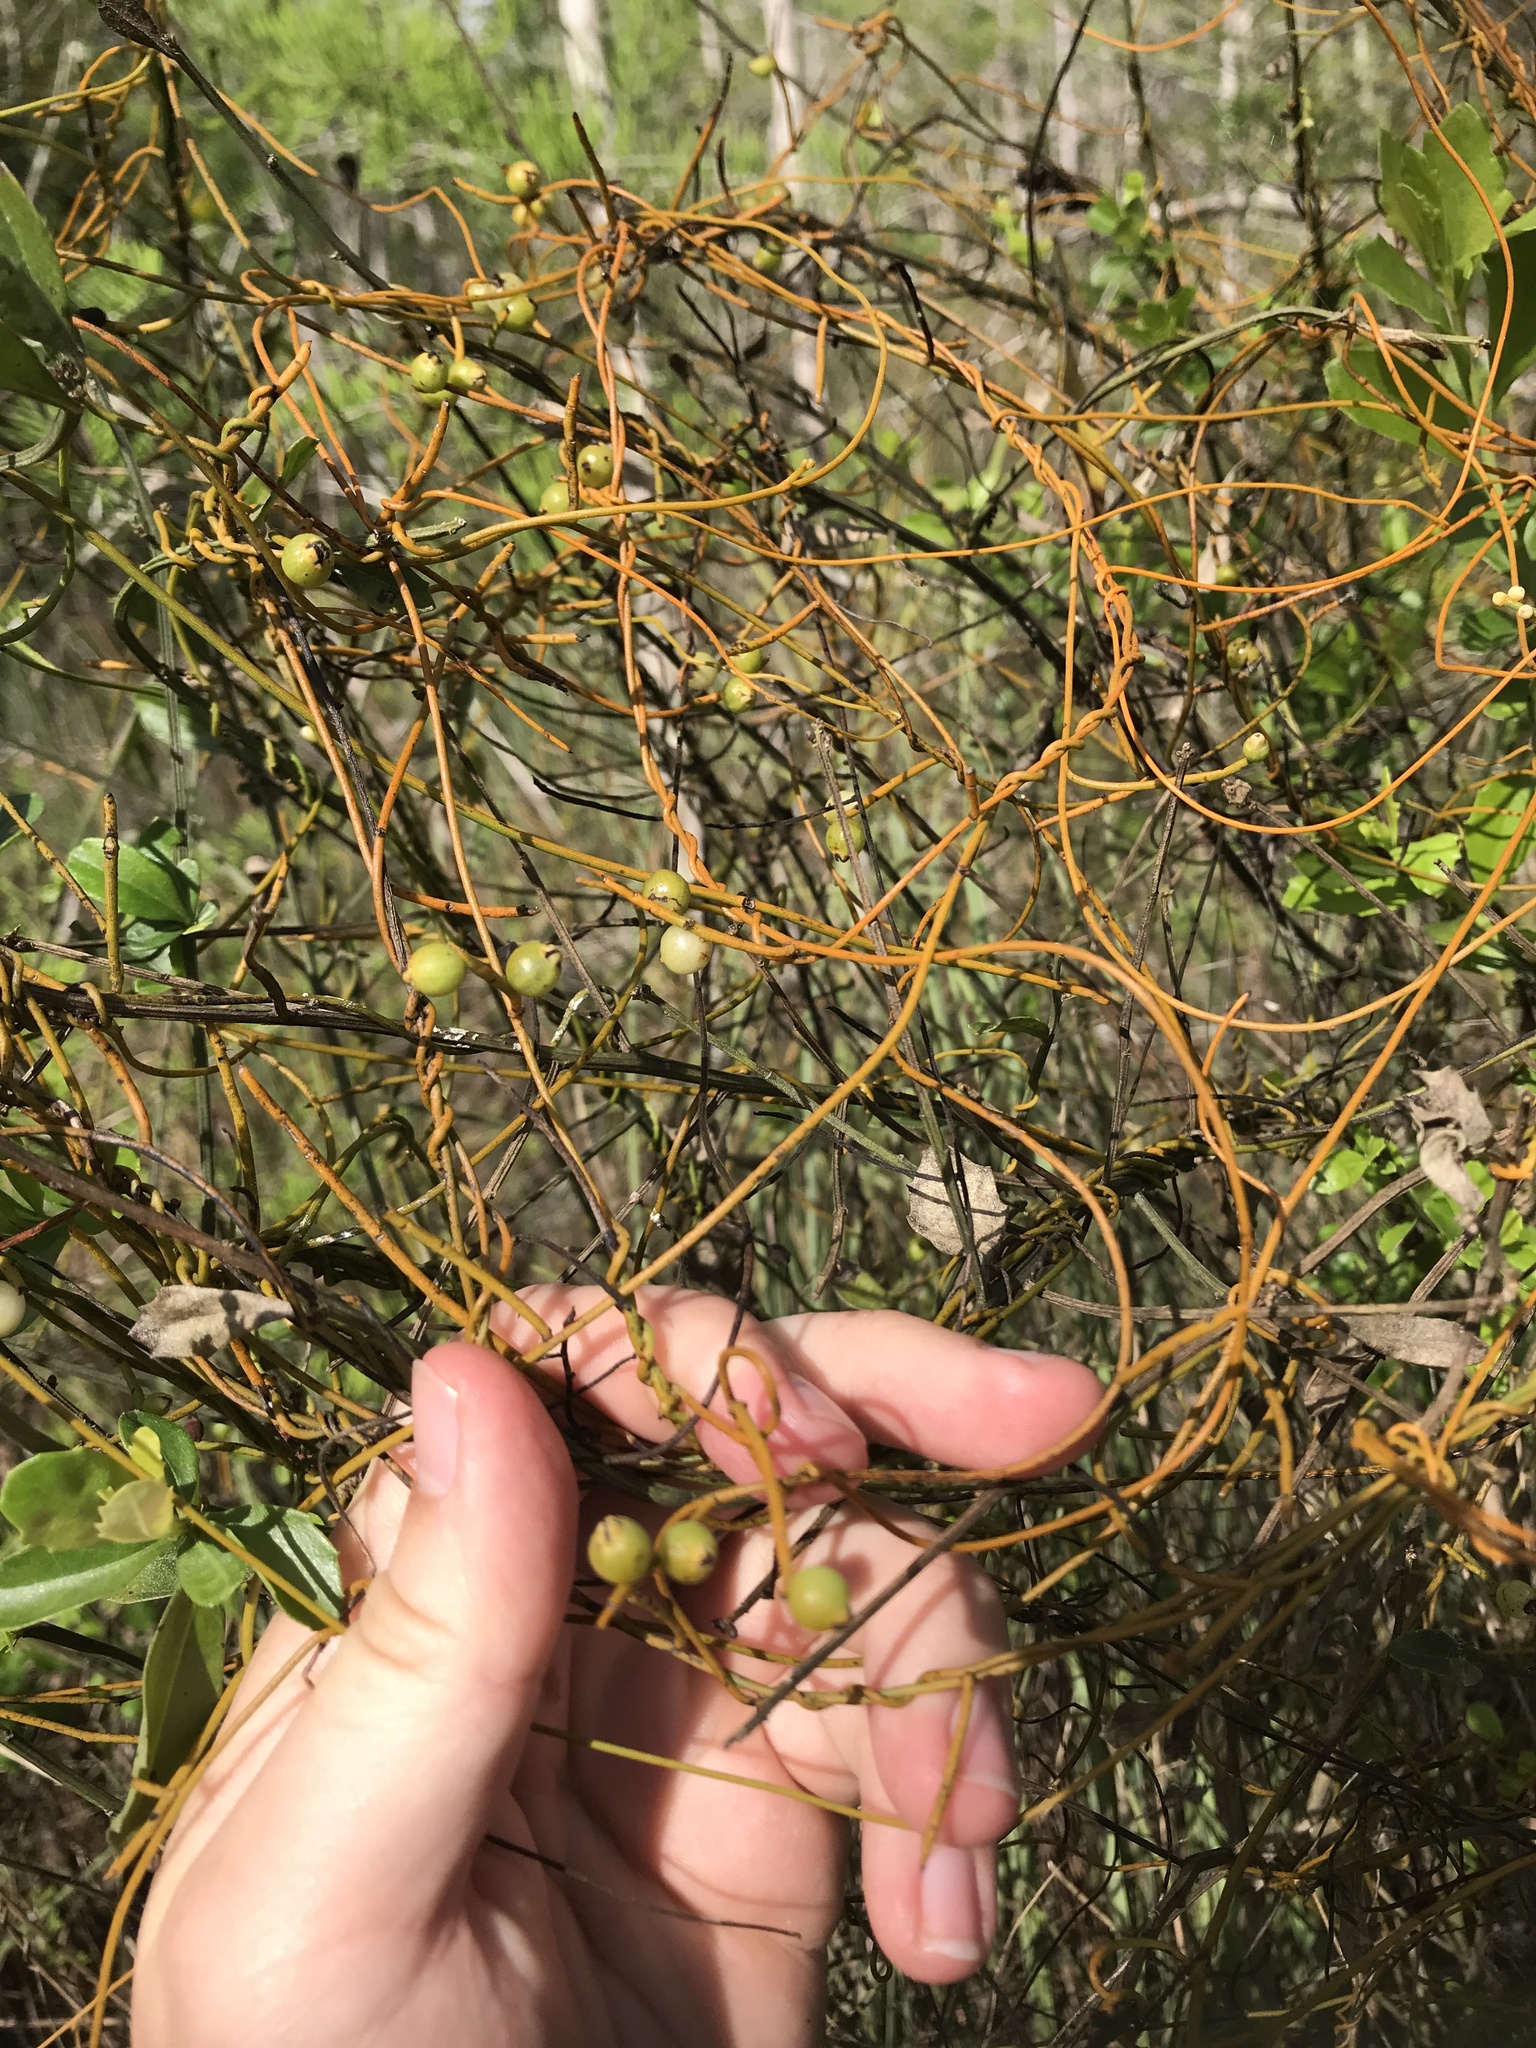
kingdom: Plantae
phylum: Tracheophyta
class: Magnoliopsida
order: Laurales
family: Lauraceae
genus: Cassytha
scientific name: Cassytha filiformis
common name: Dodder-laurel
